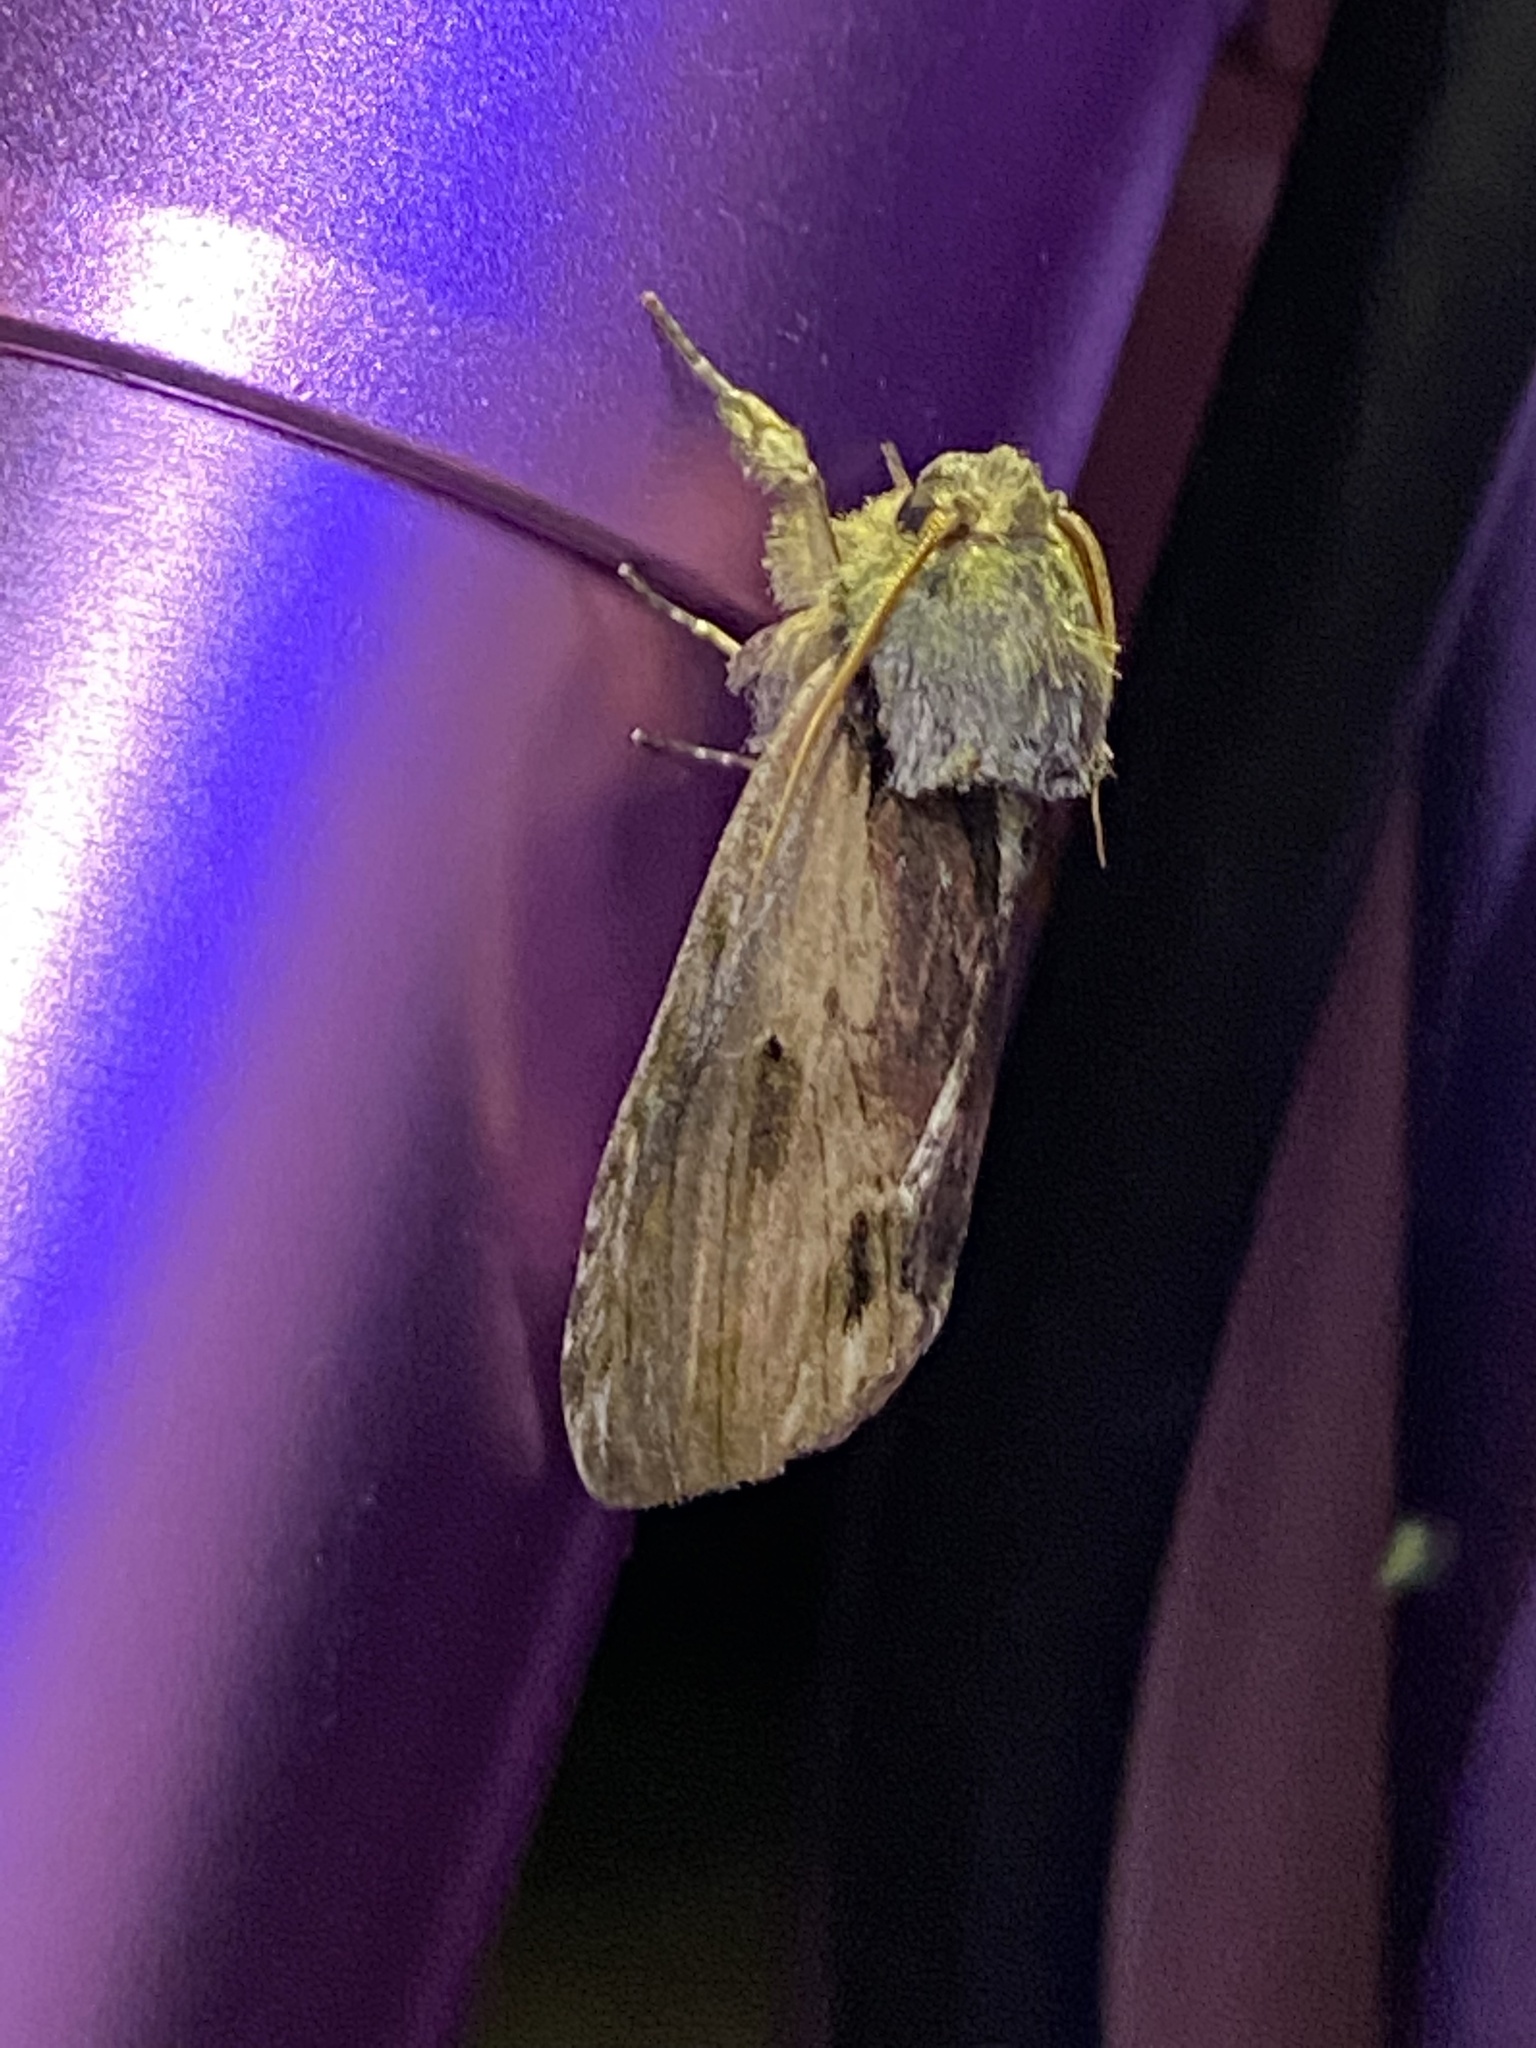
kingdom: Animalia
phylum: Arthropoda
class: Insecta
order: Lepidoptera
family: Notodontidae
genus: Schizura
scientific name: Schizura
